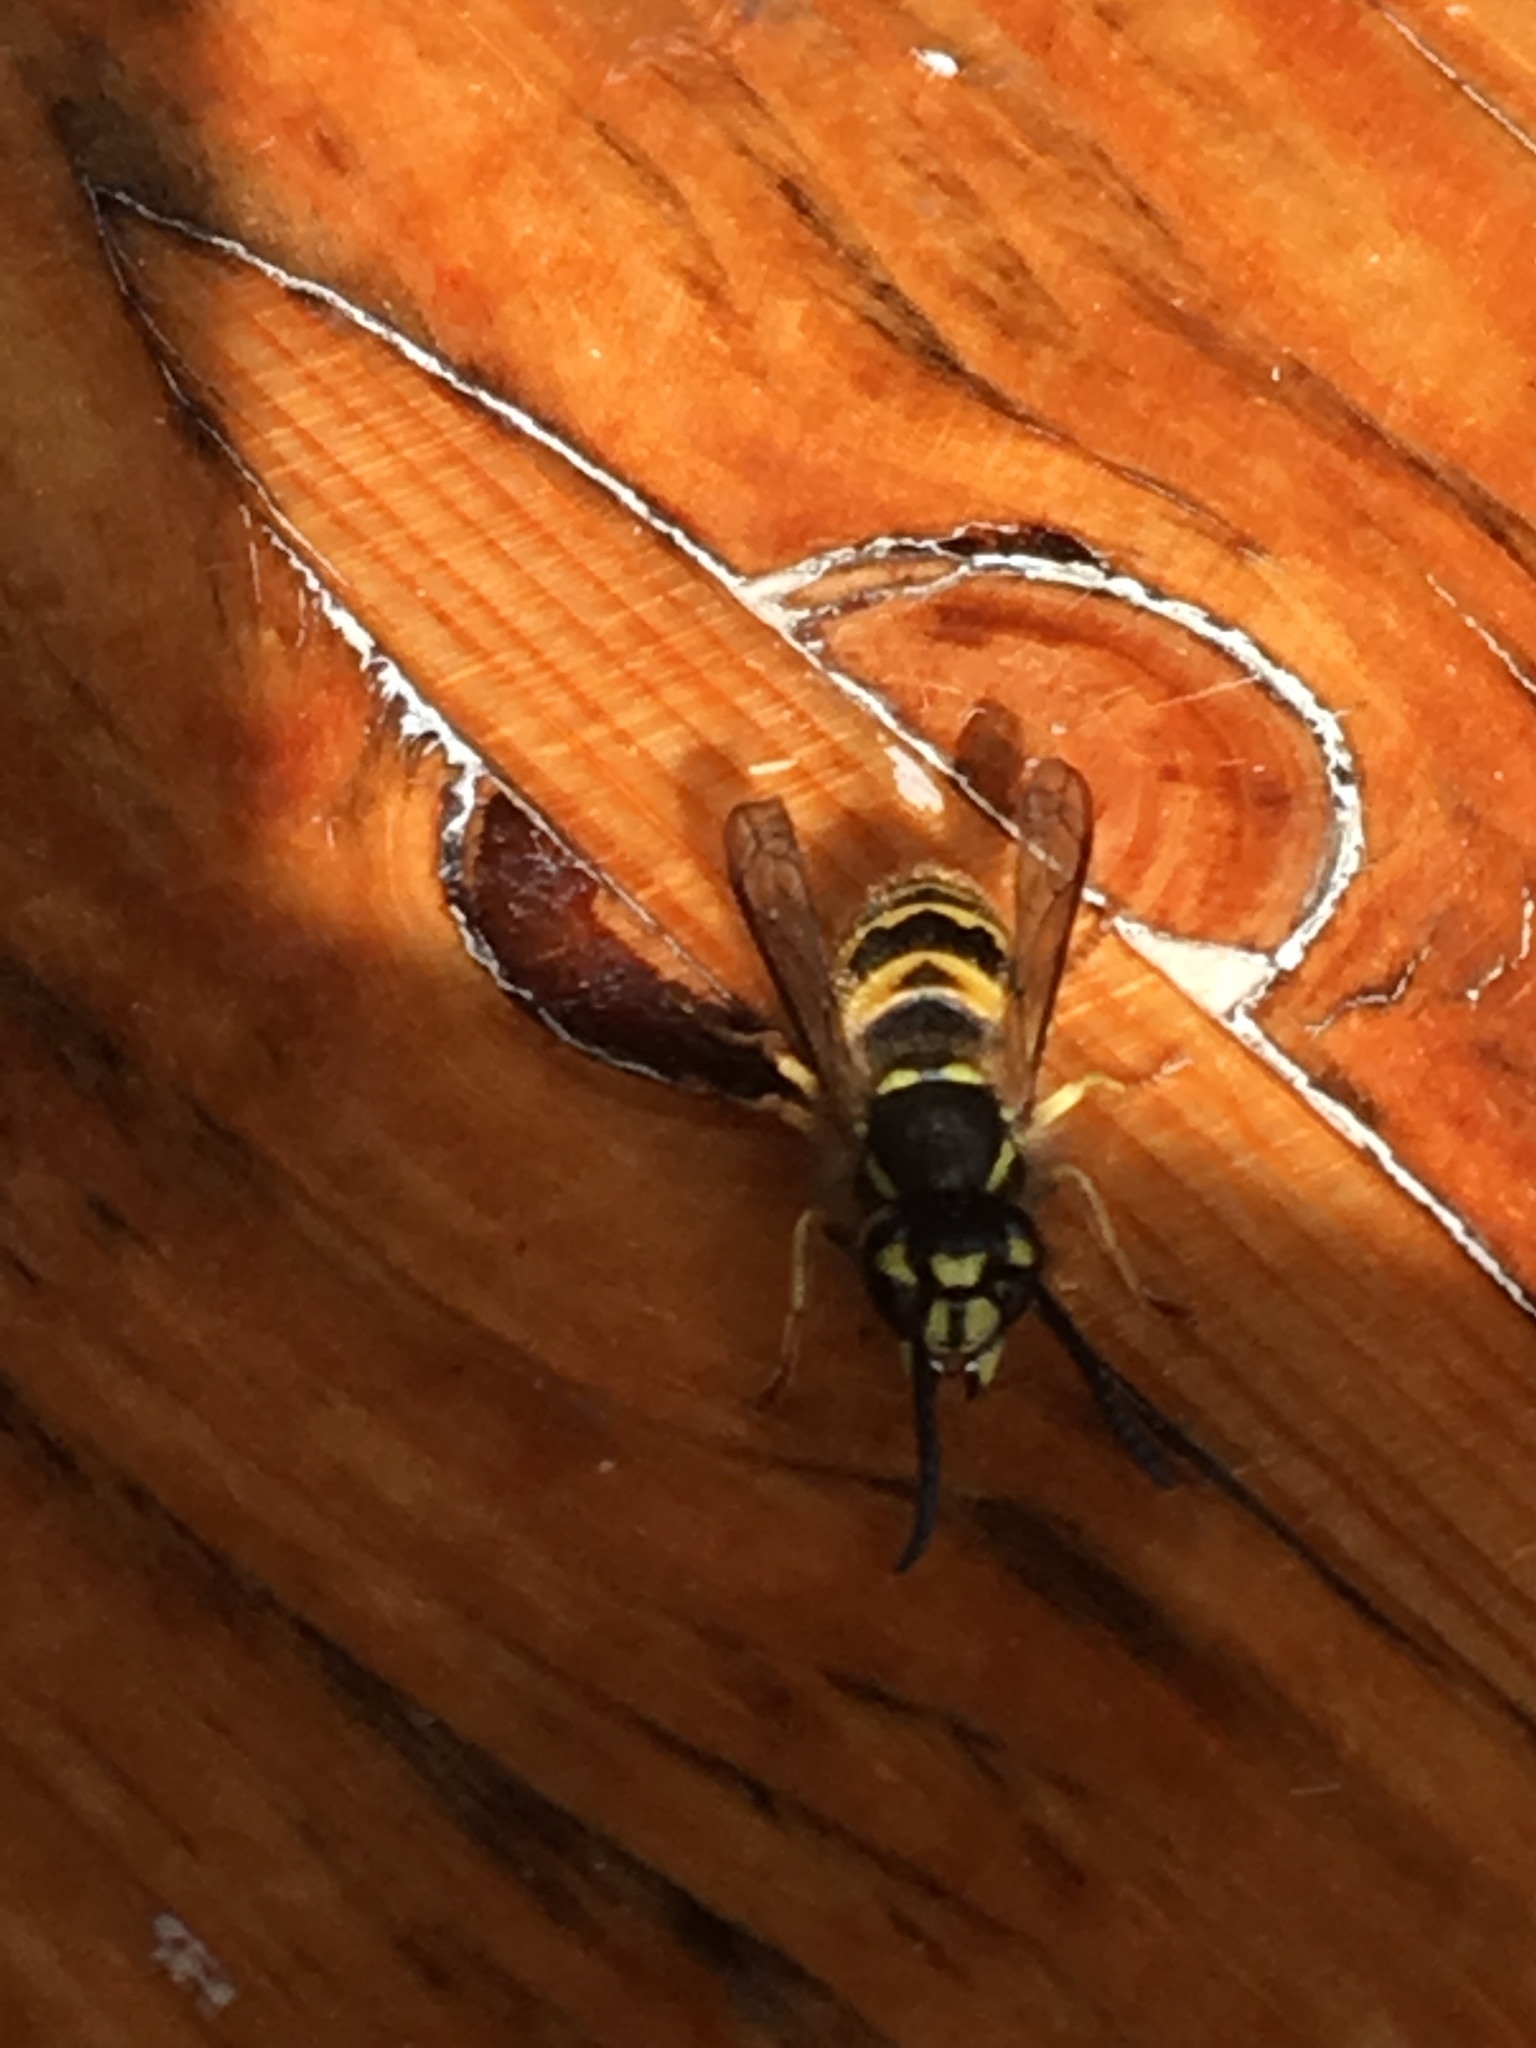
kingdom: Animalia
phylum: Arthropoda
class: Insecta
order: Hymenoptera
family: Vespidae
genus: Vespula
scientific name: Vespula vulgaris
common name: Common wasp
